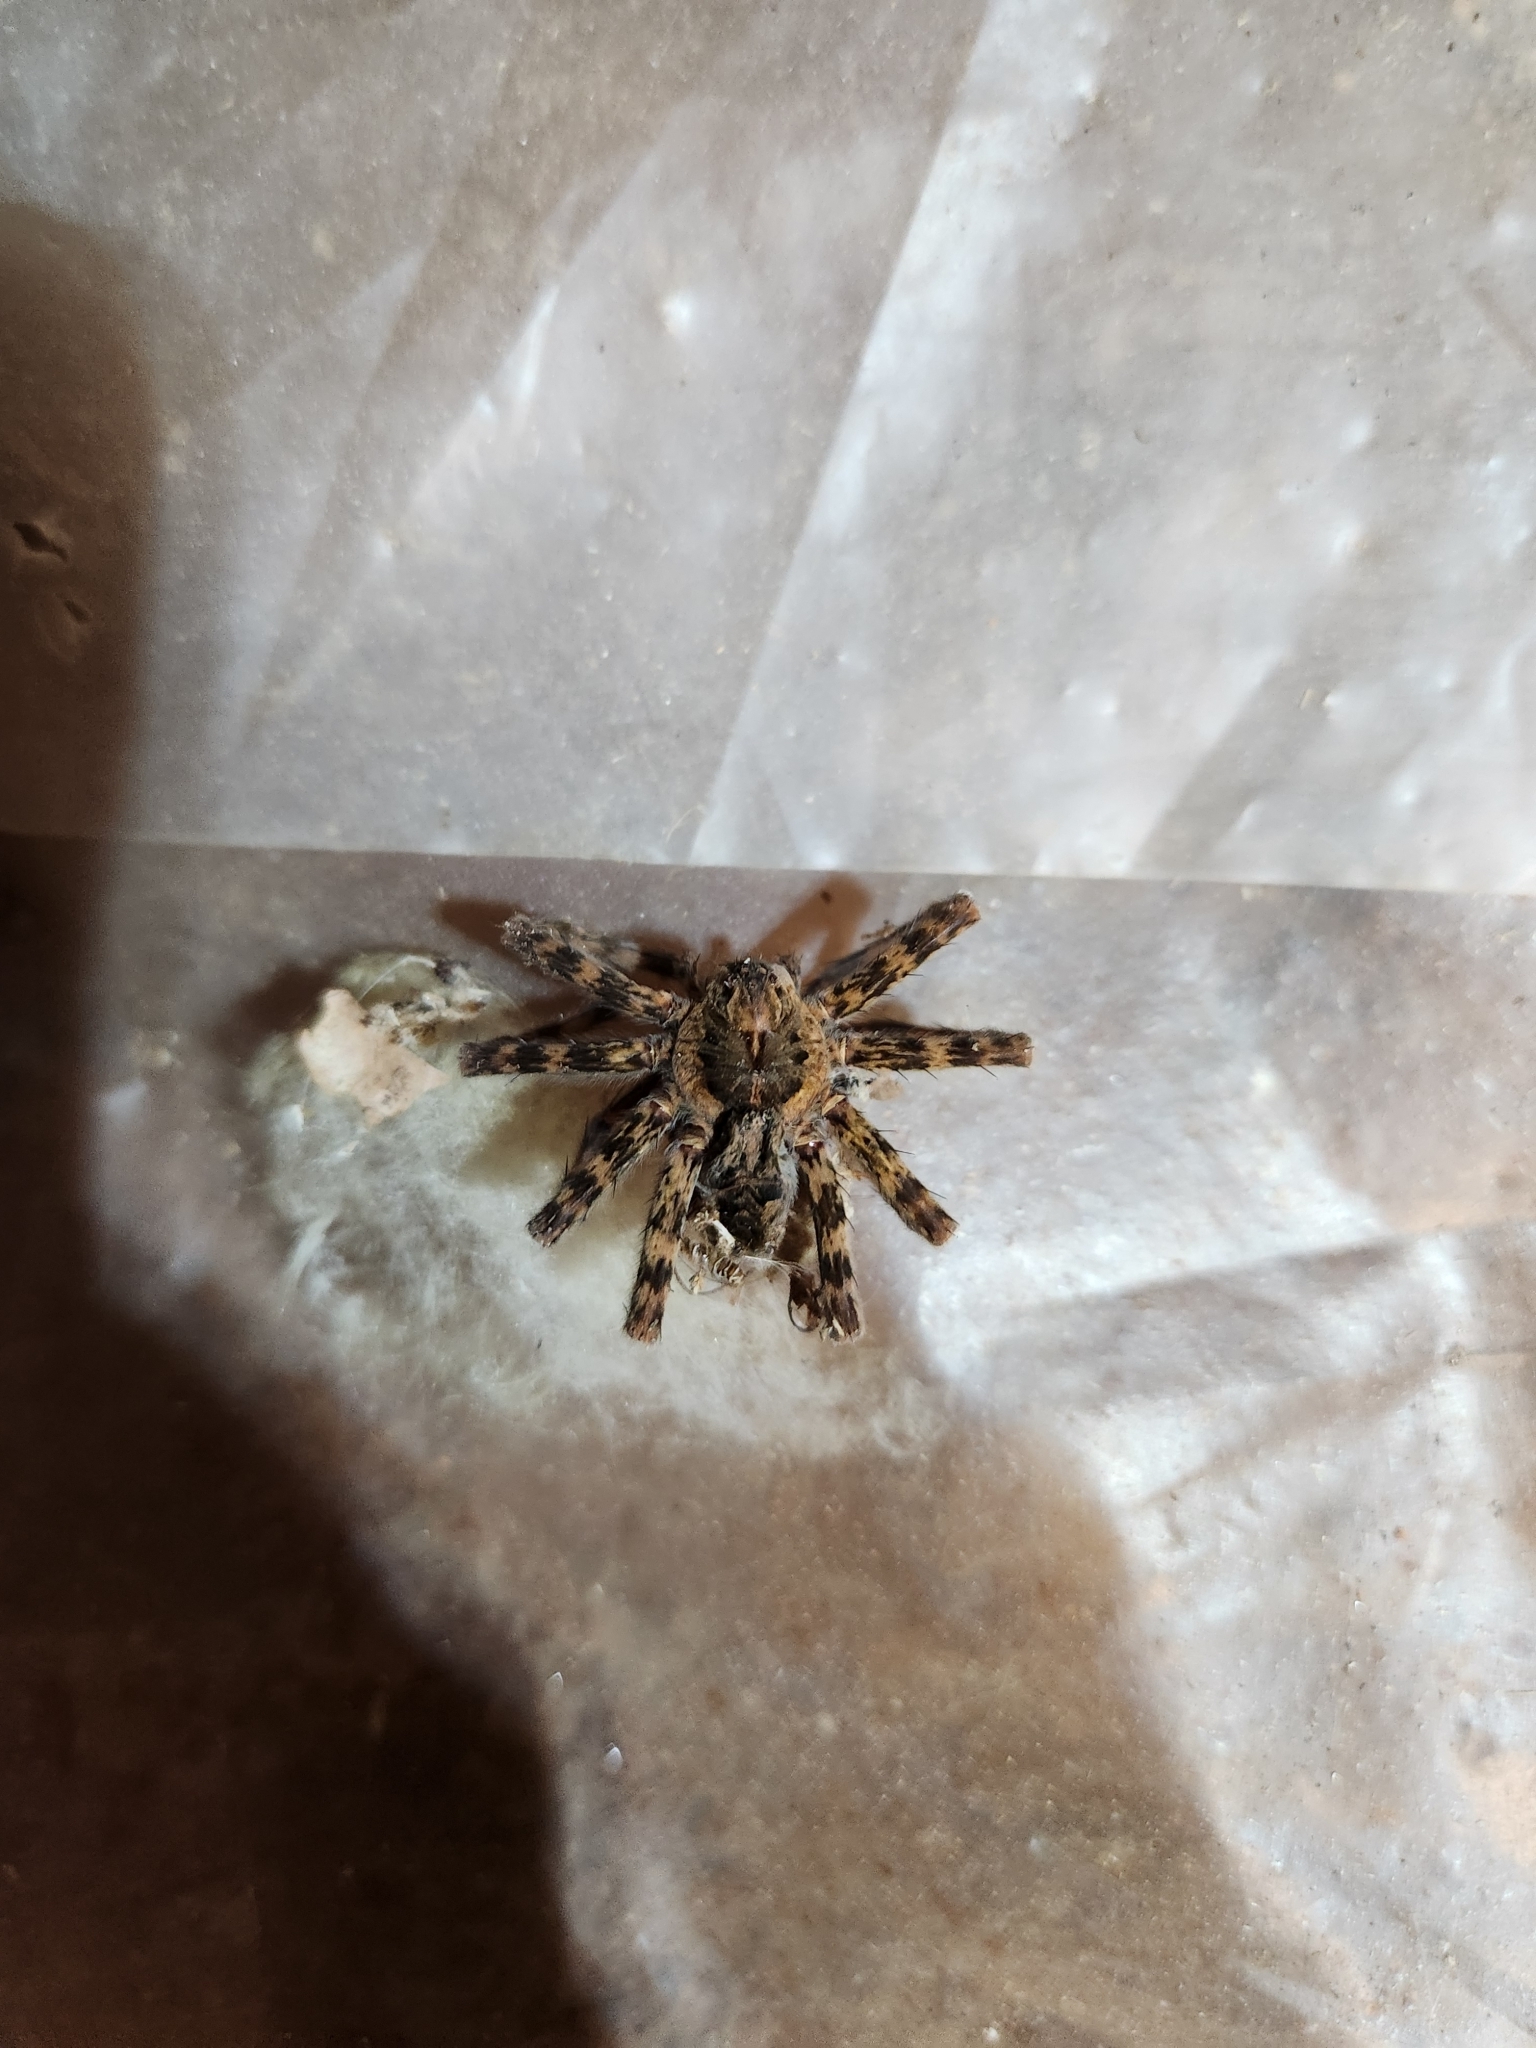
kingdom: Animalia
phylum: Arthropoda
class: Arachnida
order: Araneae
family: Pisauridae
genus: Dolomedes
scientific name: Dolomedes tenebrosus
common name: Dark fishing spider
